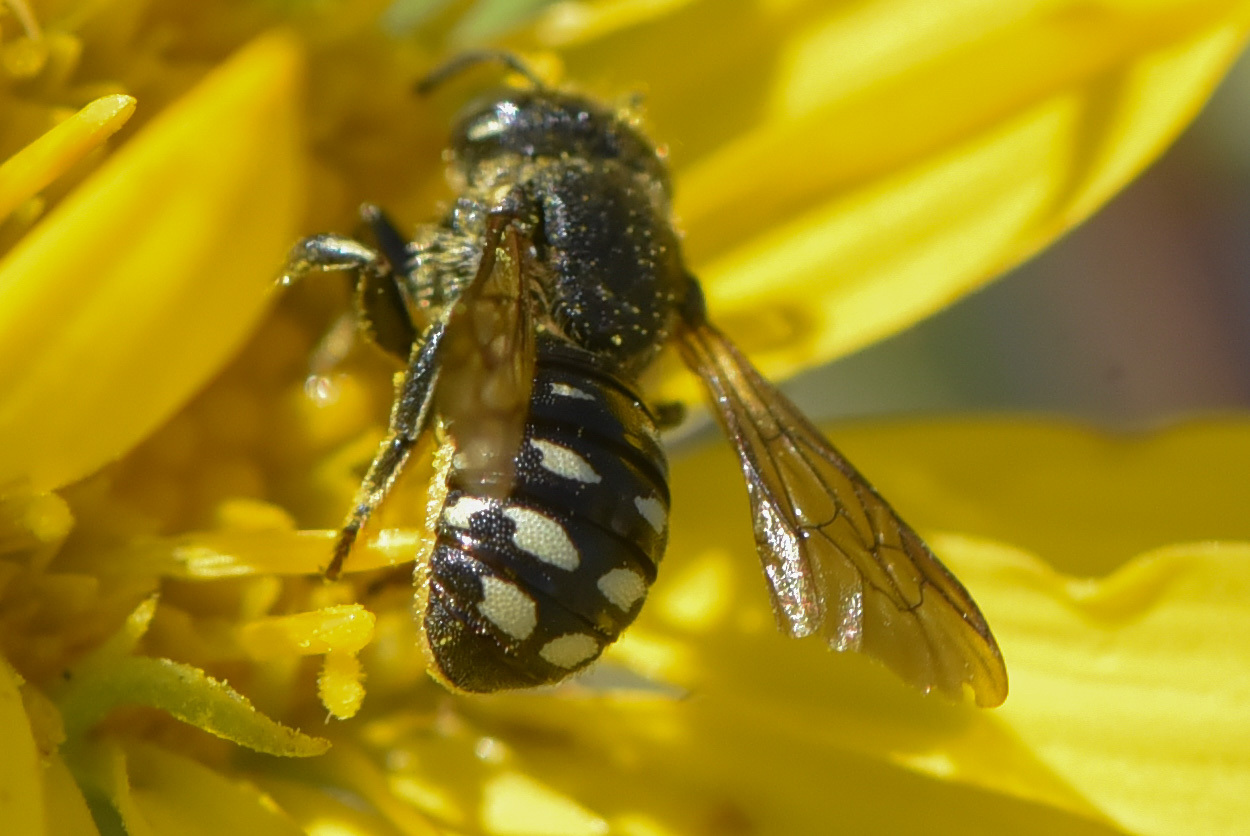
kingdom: Animalia
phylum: Arthropoda
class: Insecta
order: Hymenoptera
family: Megachilidae
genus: Dianthidium
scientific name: Dianthidium subparvum
